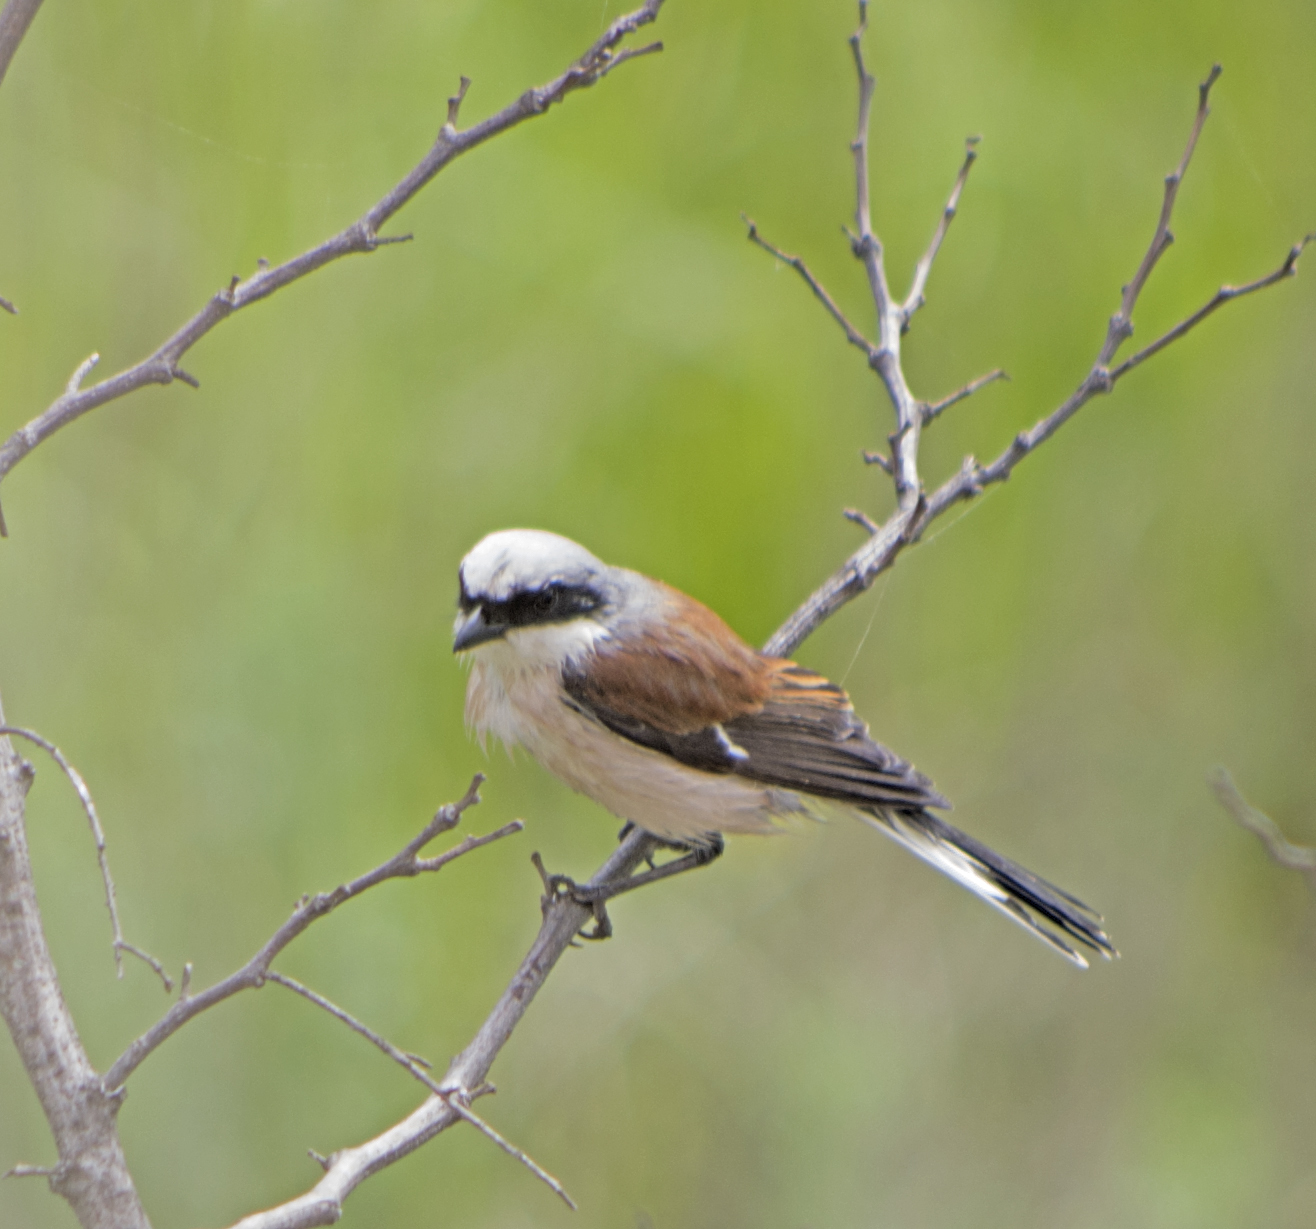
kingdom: Animalia
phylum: Chordata
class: Aves
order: Passeriformes
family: Laniidae
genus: Lanius
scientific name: Lanius collurio
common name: Red-backed shrike
